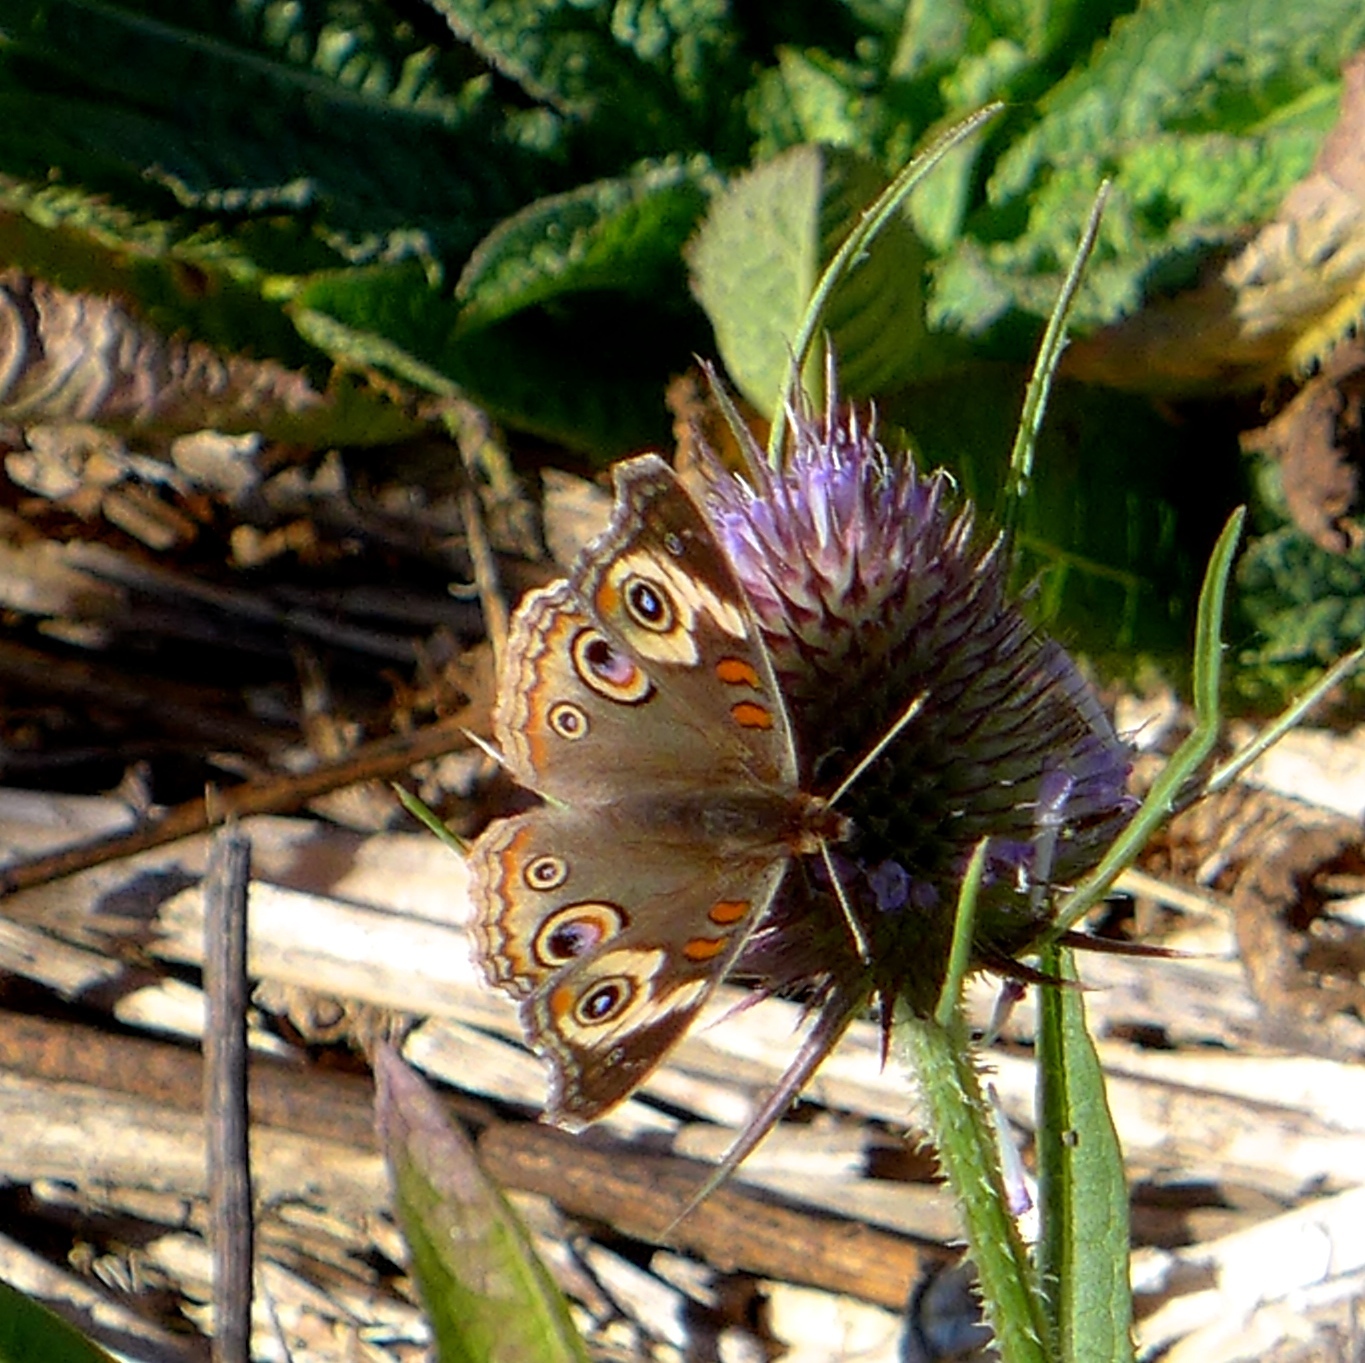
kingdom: Animalia
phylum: Arthropoda
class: Insecta
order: Lepidoptera
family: Nymphalidae
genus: Junonia
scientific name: Junonia grisea
